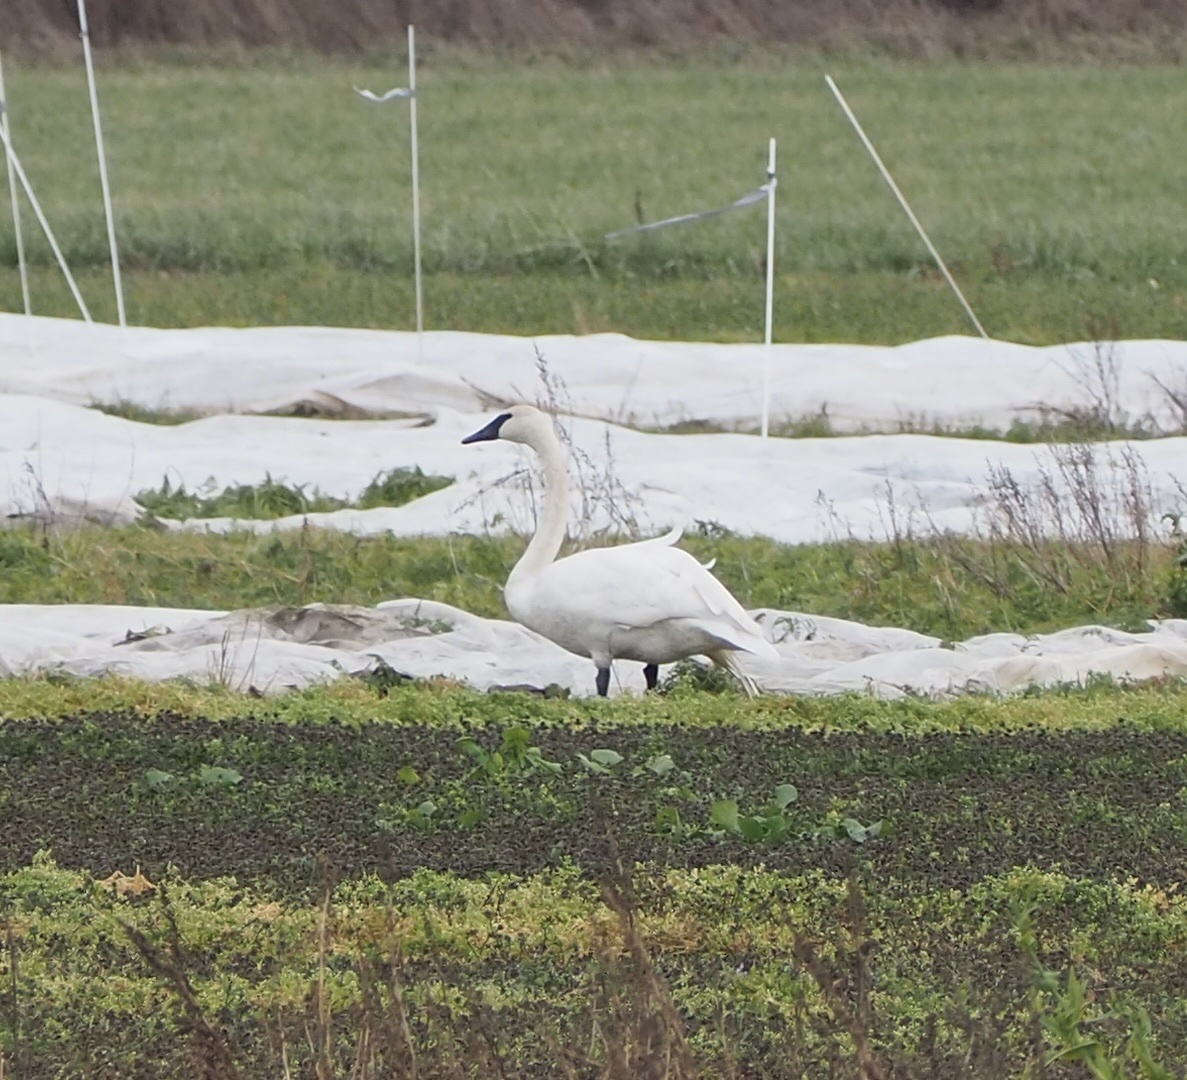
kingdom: Animalia
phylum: Chordata
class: Aves
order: Anseriformes
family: Anatidae
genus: Cygnus
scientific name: Cygnus buccinator
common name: Trumpeter swan
